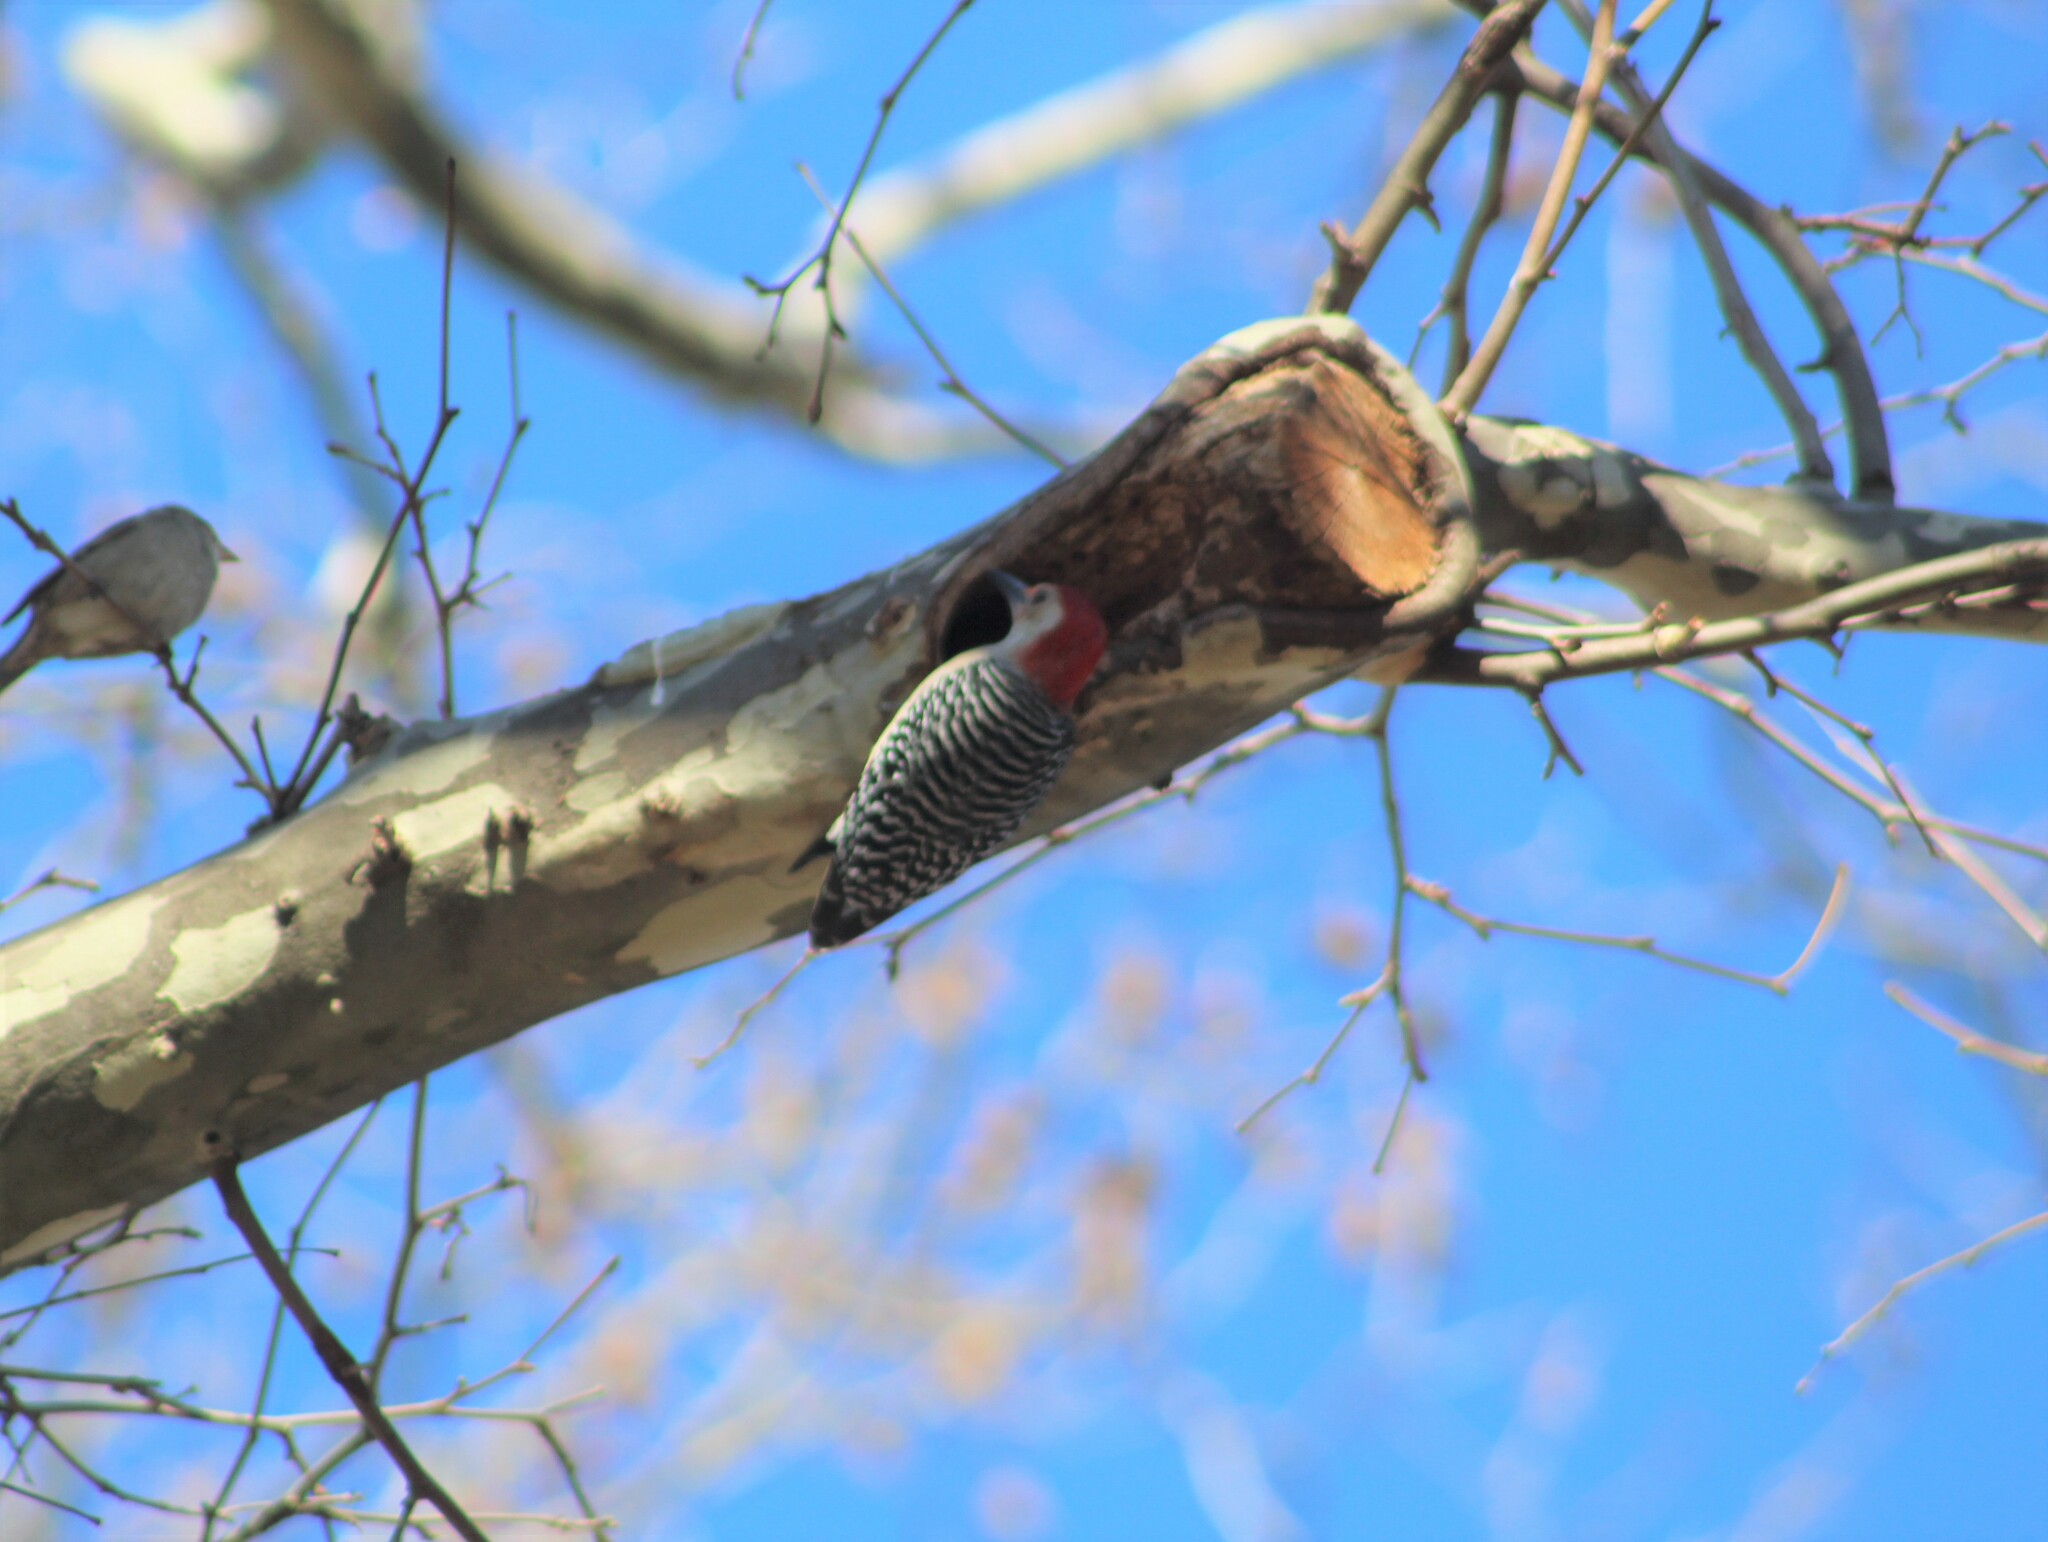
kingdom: Animalia
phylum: Chordata
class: Aves
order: Piciformes
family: Picidae
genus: Melanerpes
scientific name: Melanerpes carolinus
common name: Red-bellied woodpecker
